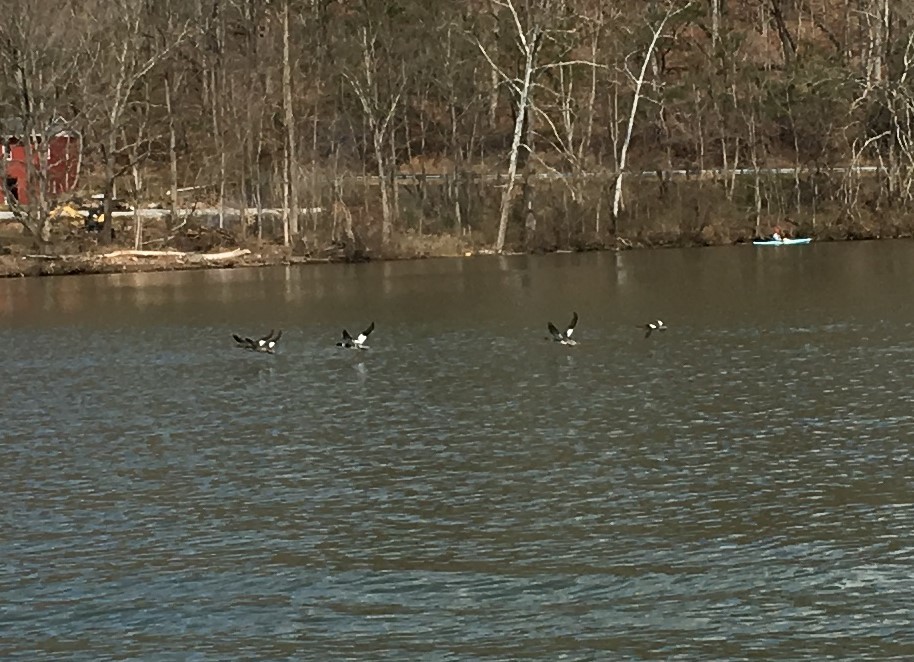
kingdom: Animalia
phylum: Chordata
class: Aves
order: Anseriformes
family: Anatidae
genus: Mergus
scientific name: Mergus serrator
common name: Red-breasted merganser
